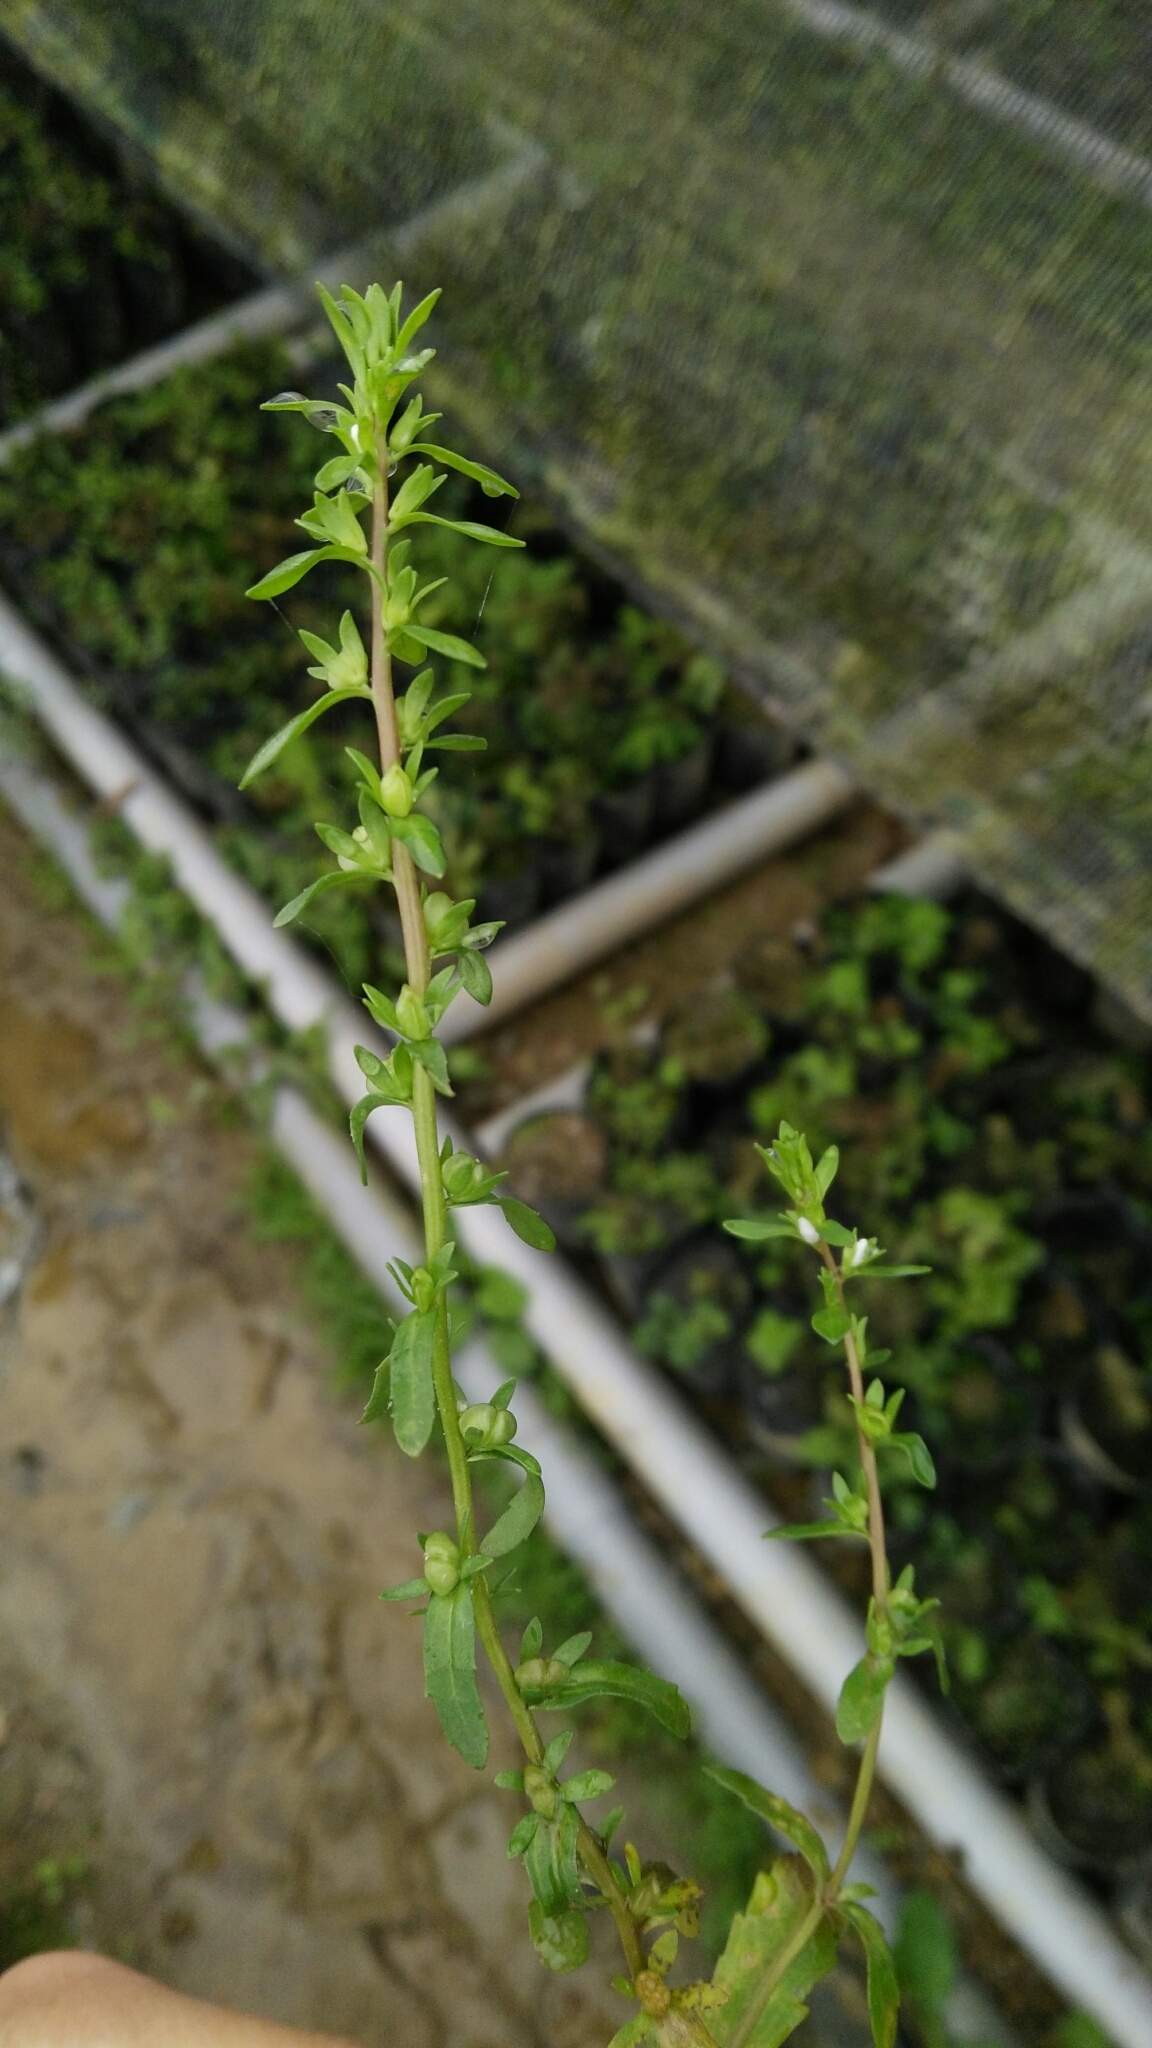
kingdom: Plantae
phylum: Tracheophyta
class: Magnoliopsida
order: Lamiales
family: Plantaginaceae
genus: Veronica
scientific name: Veronica peregrina
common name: Neckweed
